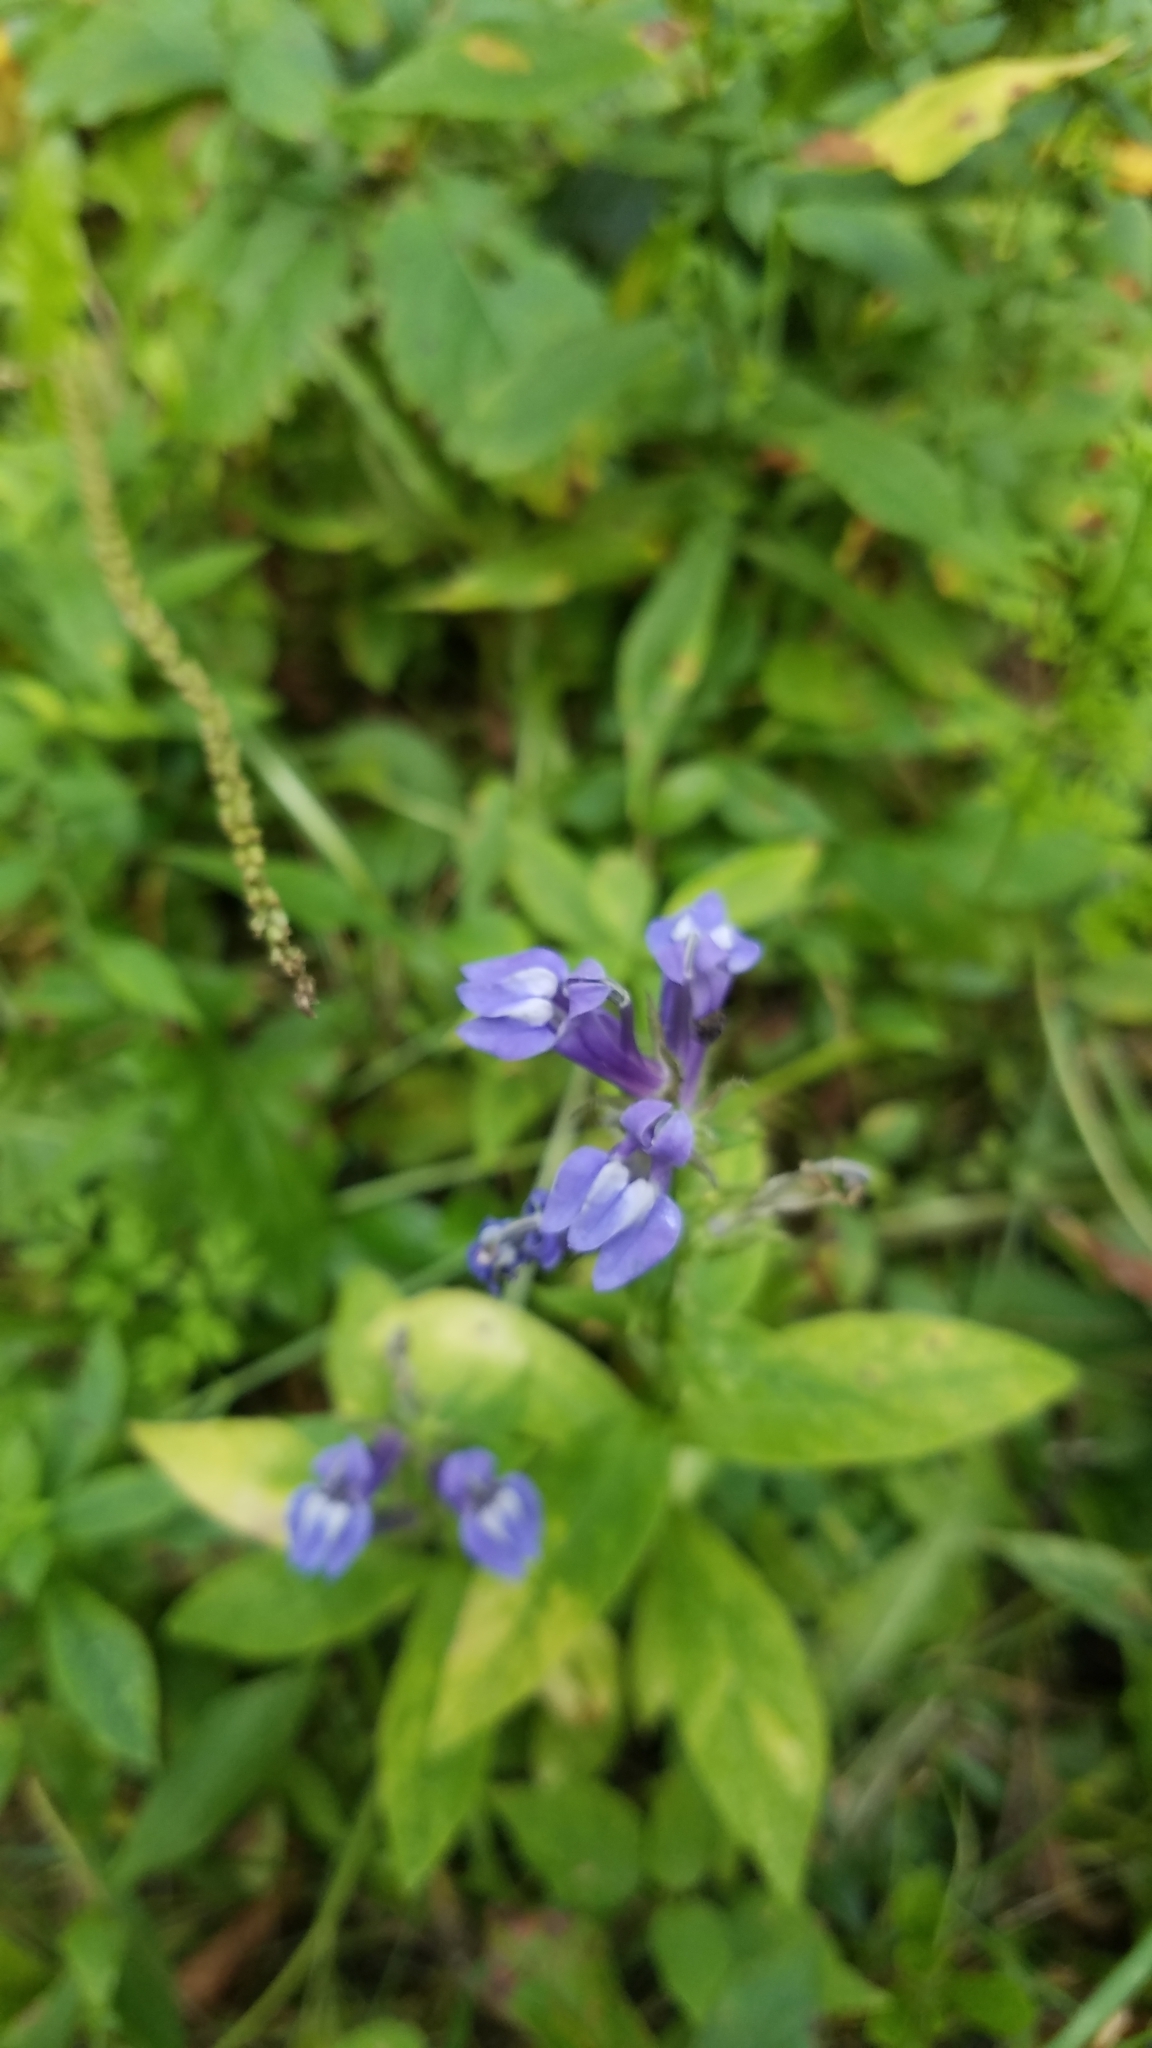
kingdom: Plantae
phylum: Tracheophyta
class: Magnoliopsida
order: Asterales
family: Campanulaceae
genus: Lobelia
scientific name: Lobelia siphilitica
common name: Great lobelia
